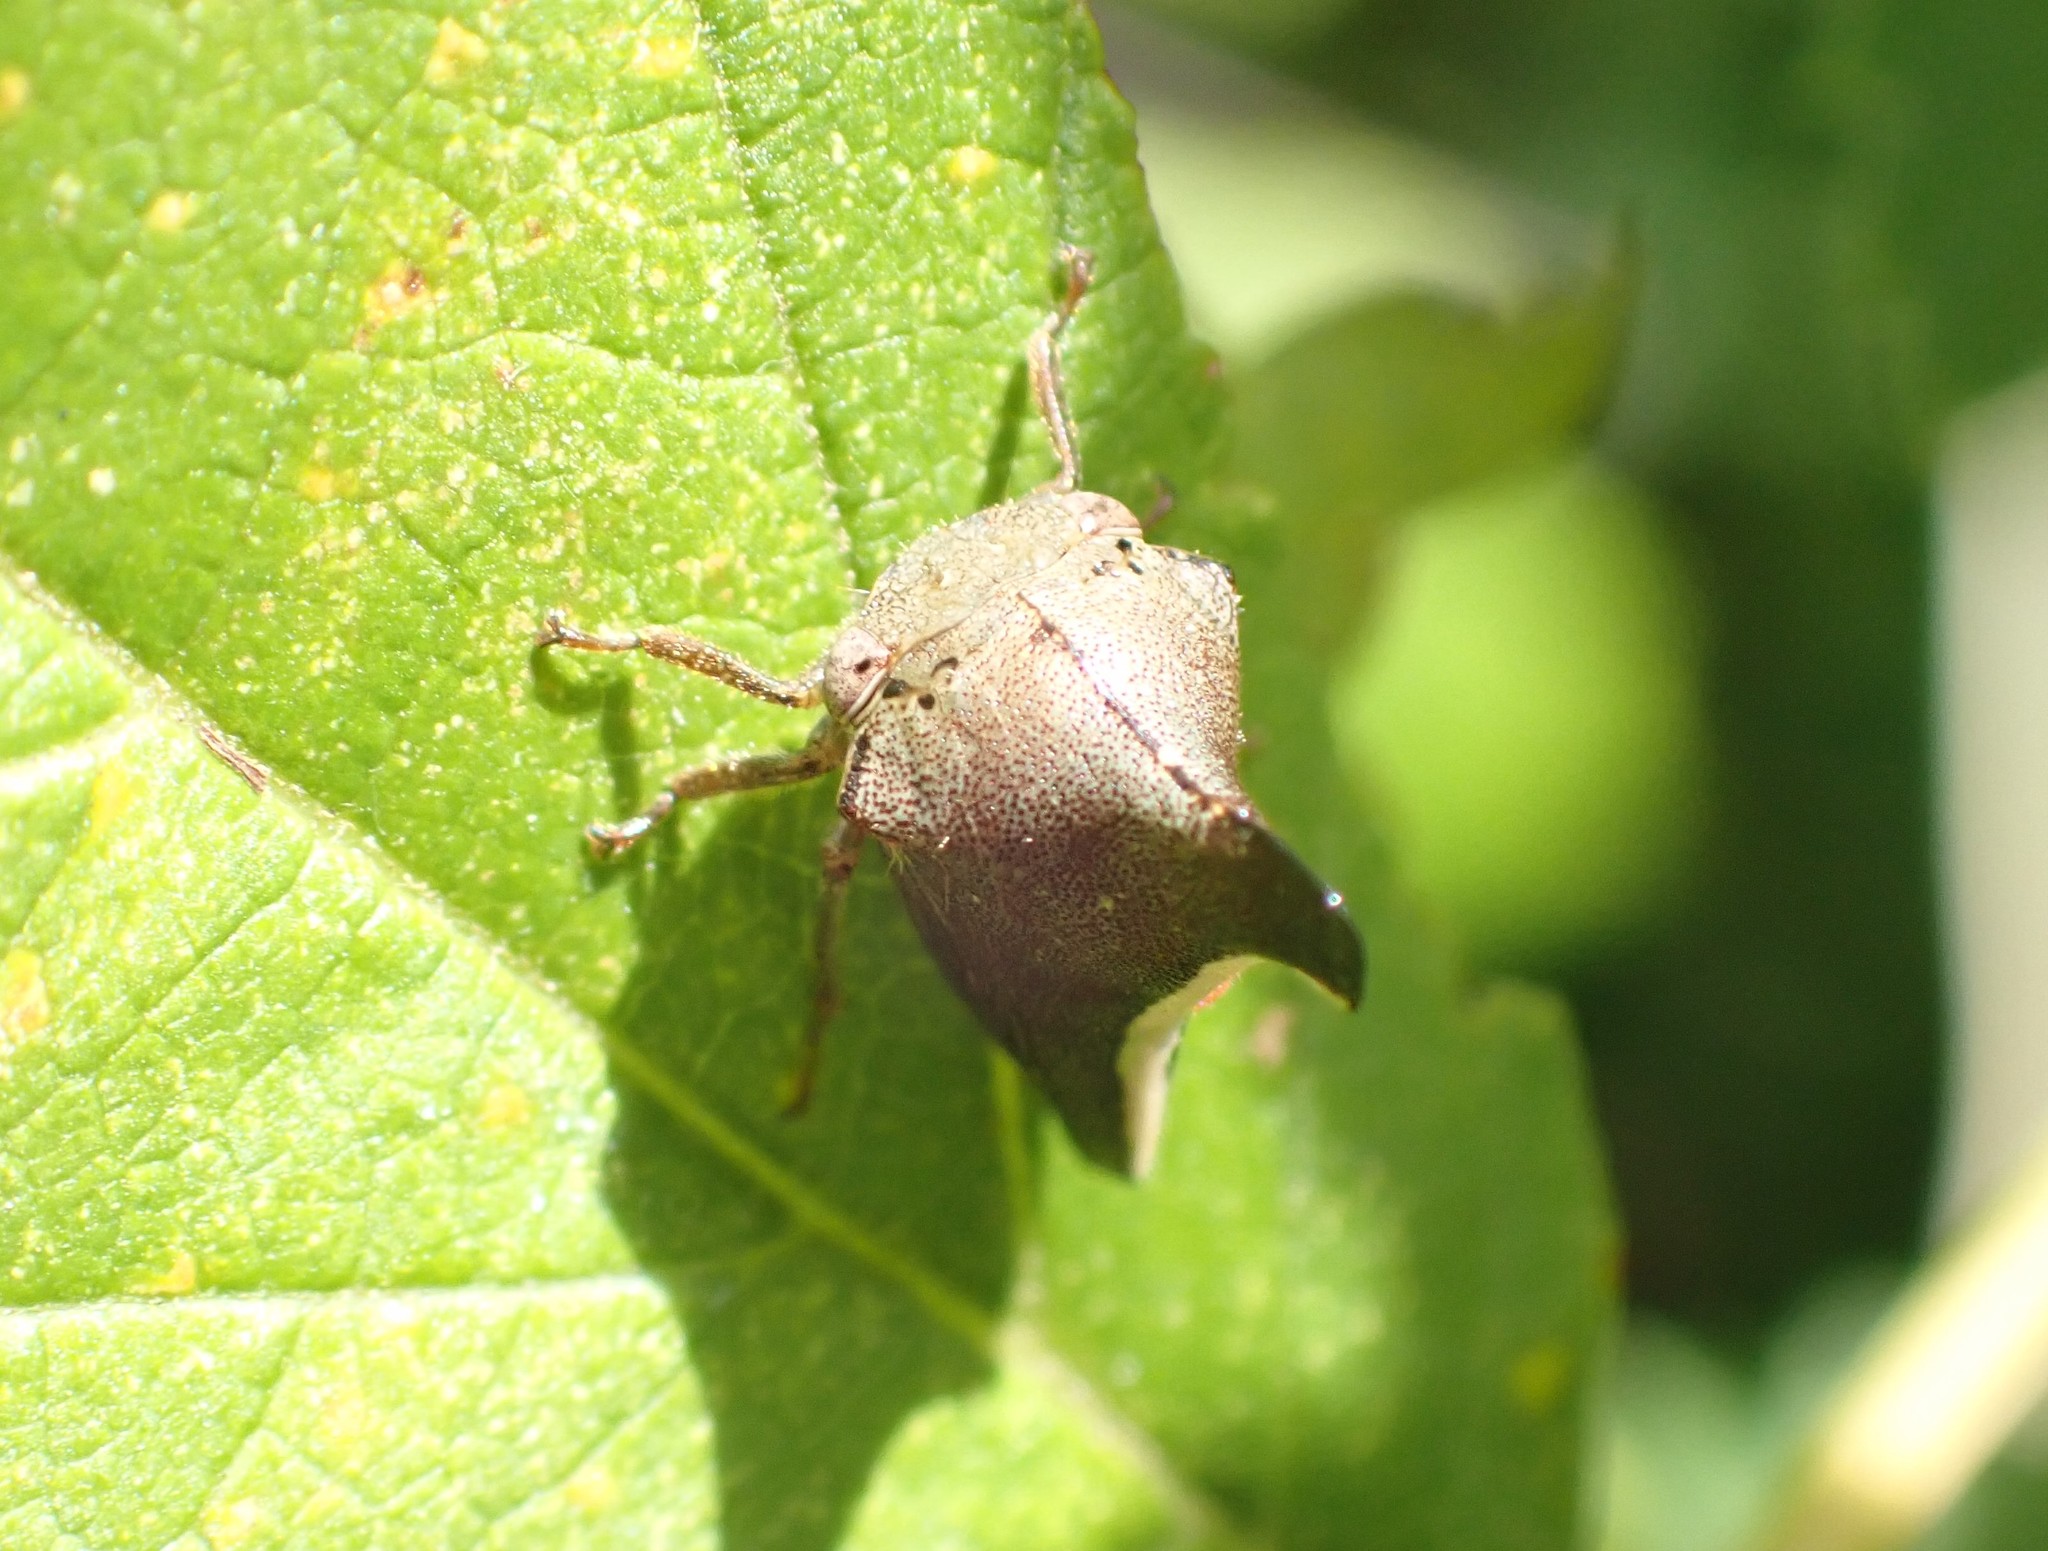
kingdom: Animalia
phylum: Arthropoda
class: Insecta
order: Hemiptera
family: Membracidae
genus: Glossonotus
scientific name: Glossonotus univittatus
